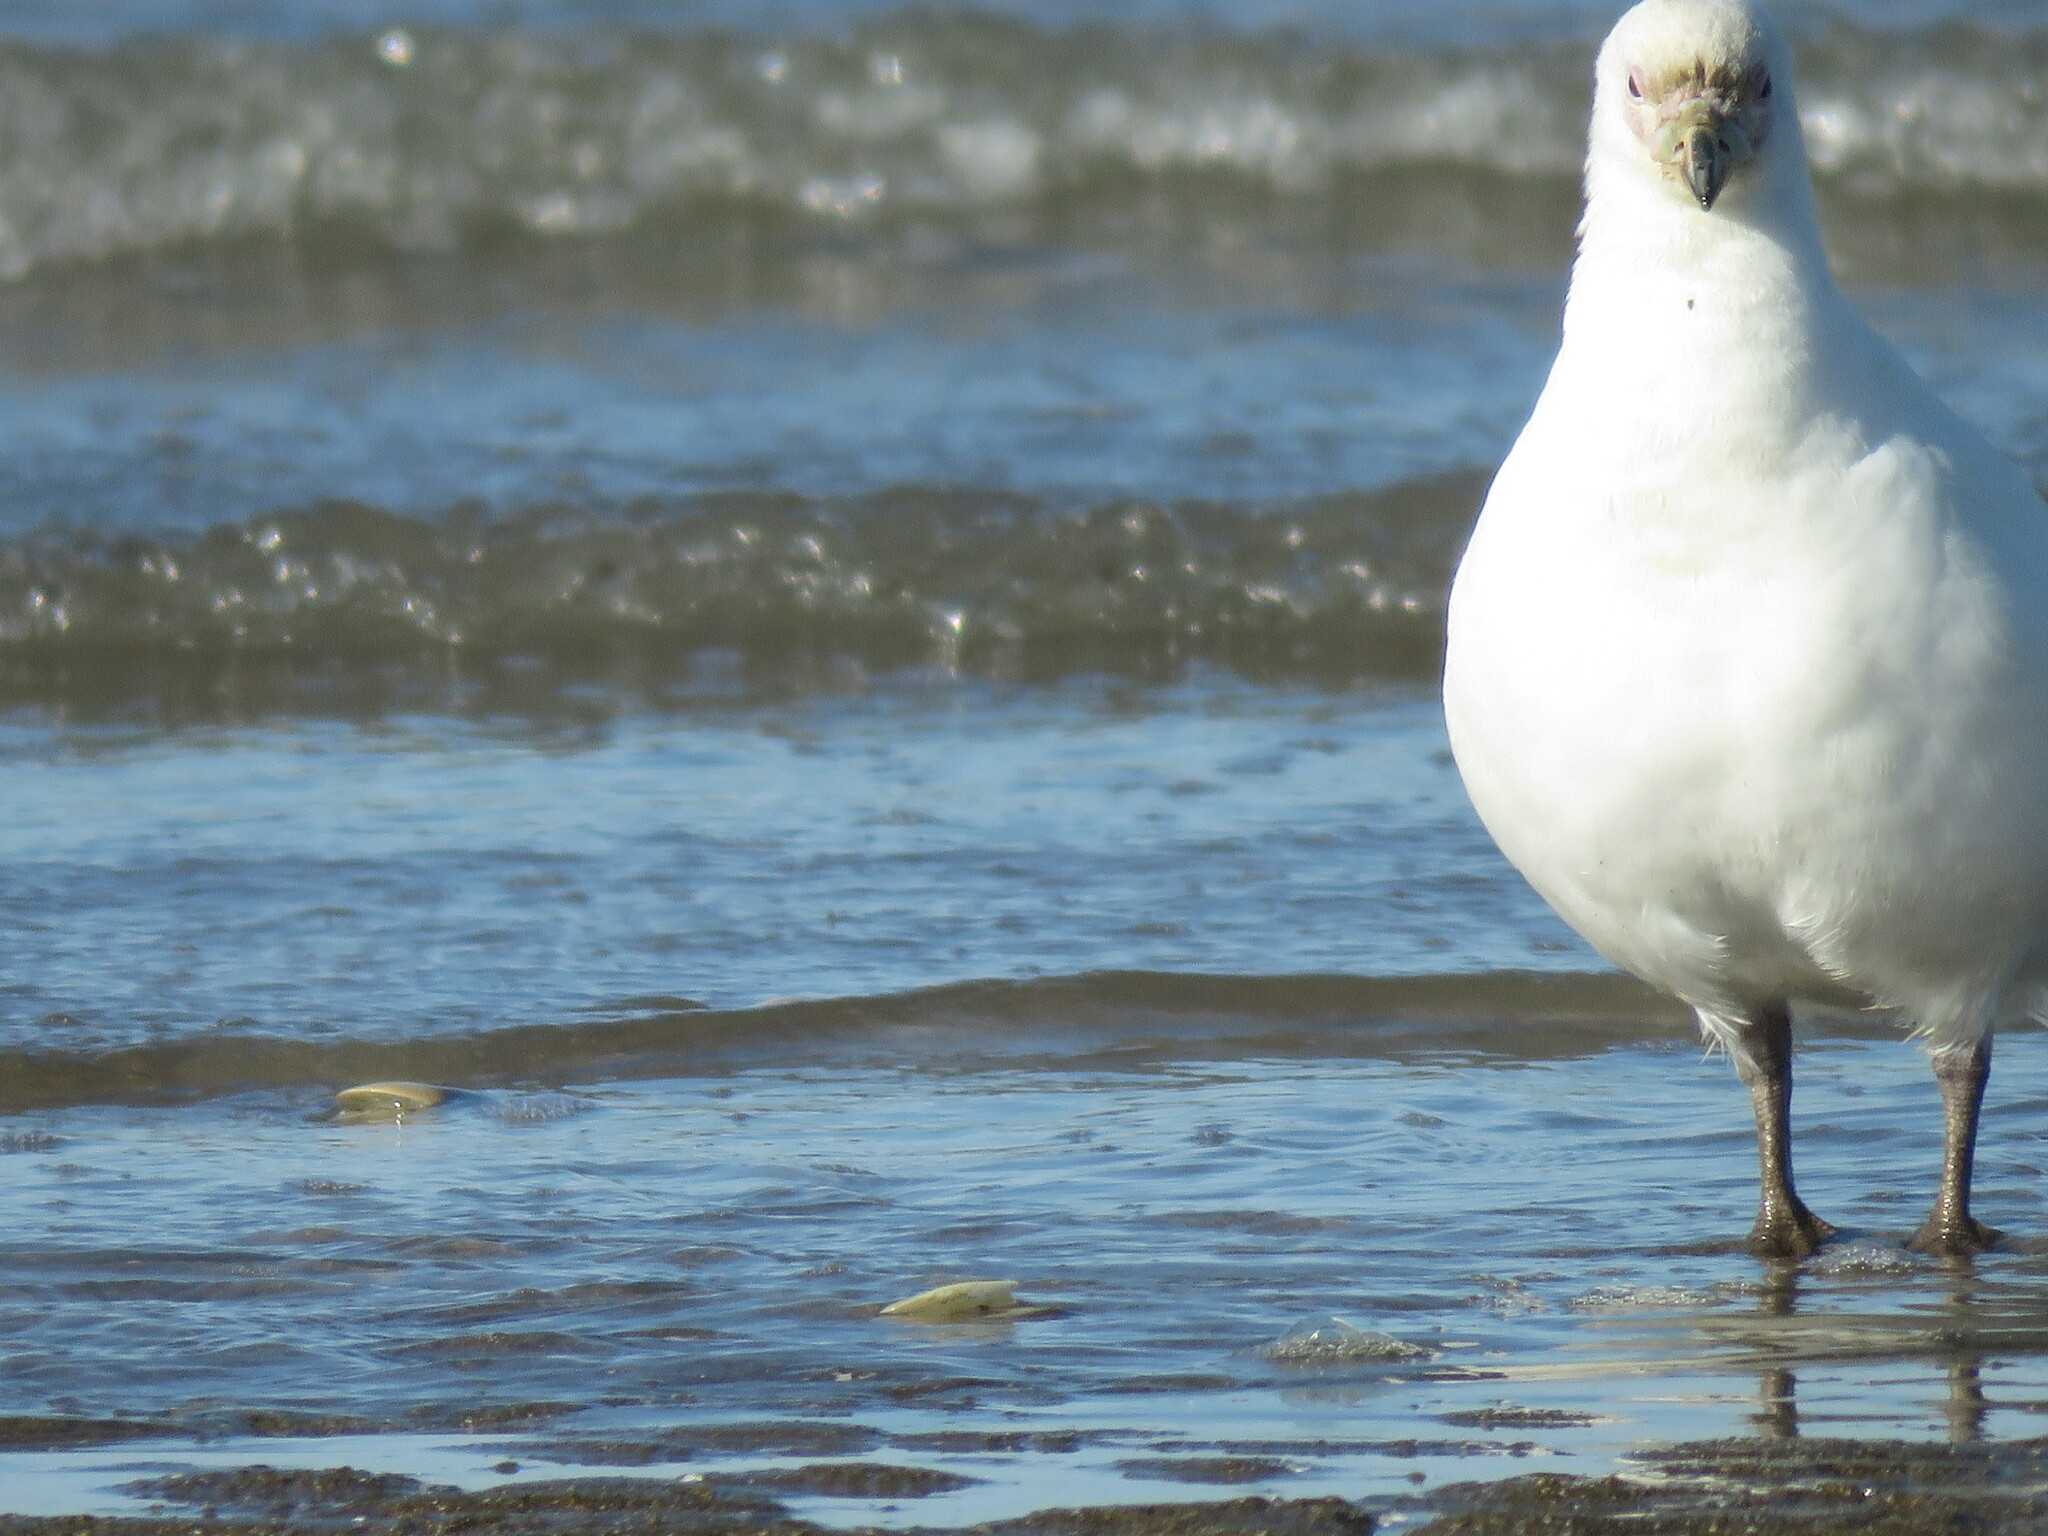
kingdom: Animalia
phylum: Chordata
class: Aves
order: Charadriiformes
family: Chionidae
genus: Chionis
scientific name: Chionis albus
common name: Snowy sheathbill
